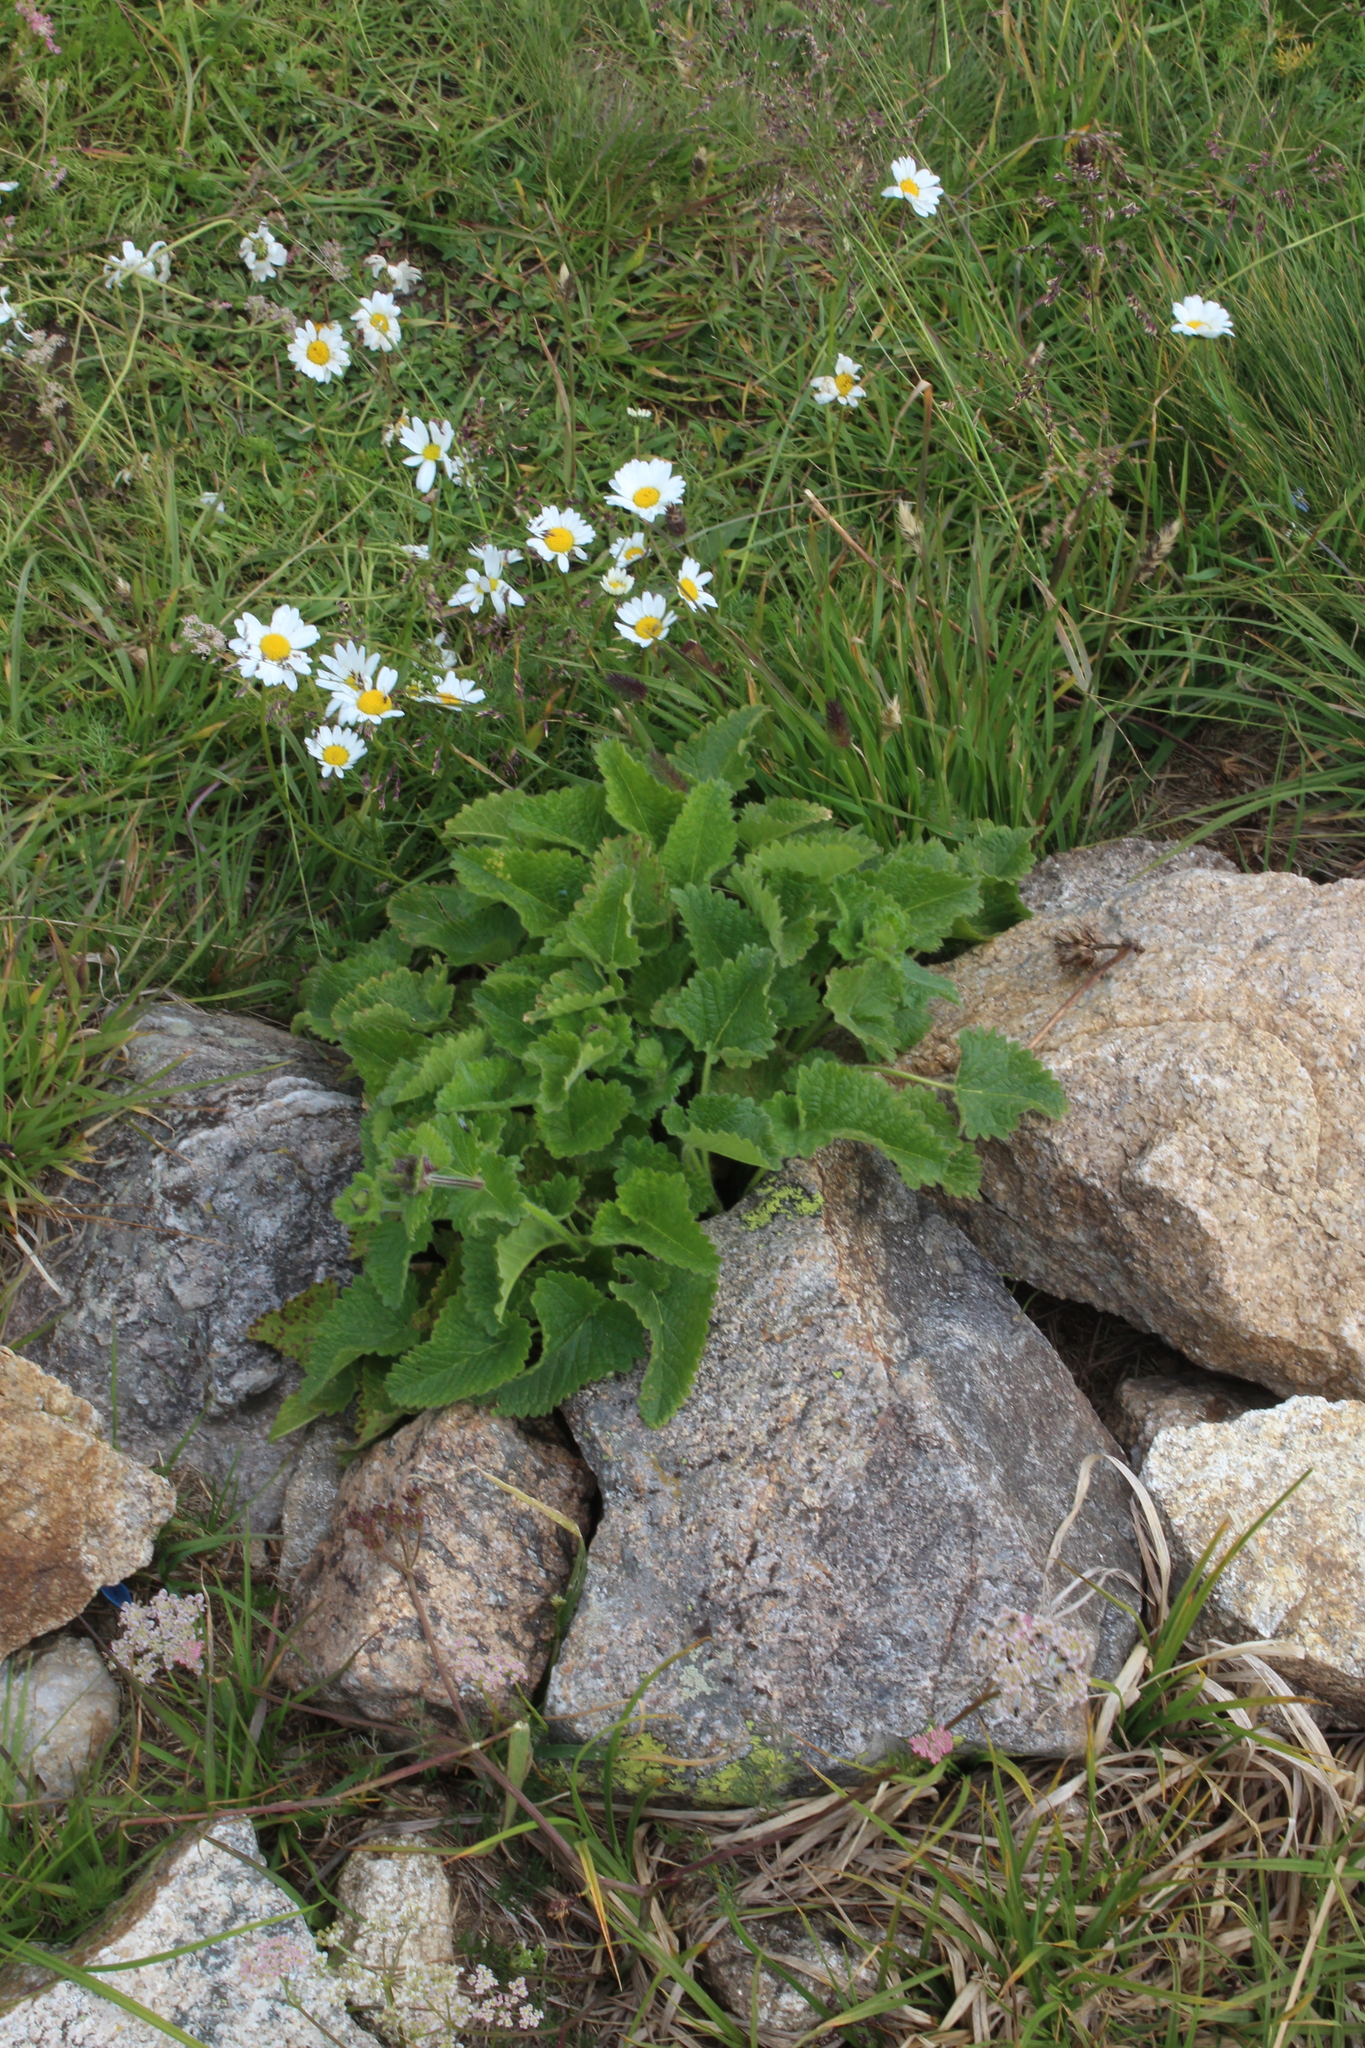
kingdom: Plantae
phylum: Tracheophyta
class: Magnoliopsida
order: Lamiales
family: Lamiaceae
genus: Betonica
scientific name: Betonica macrantha
